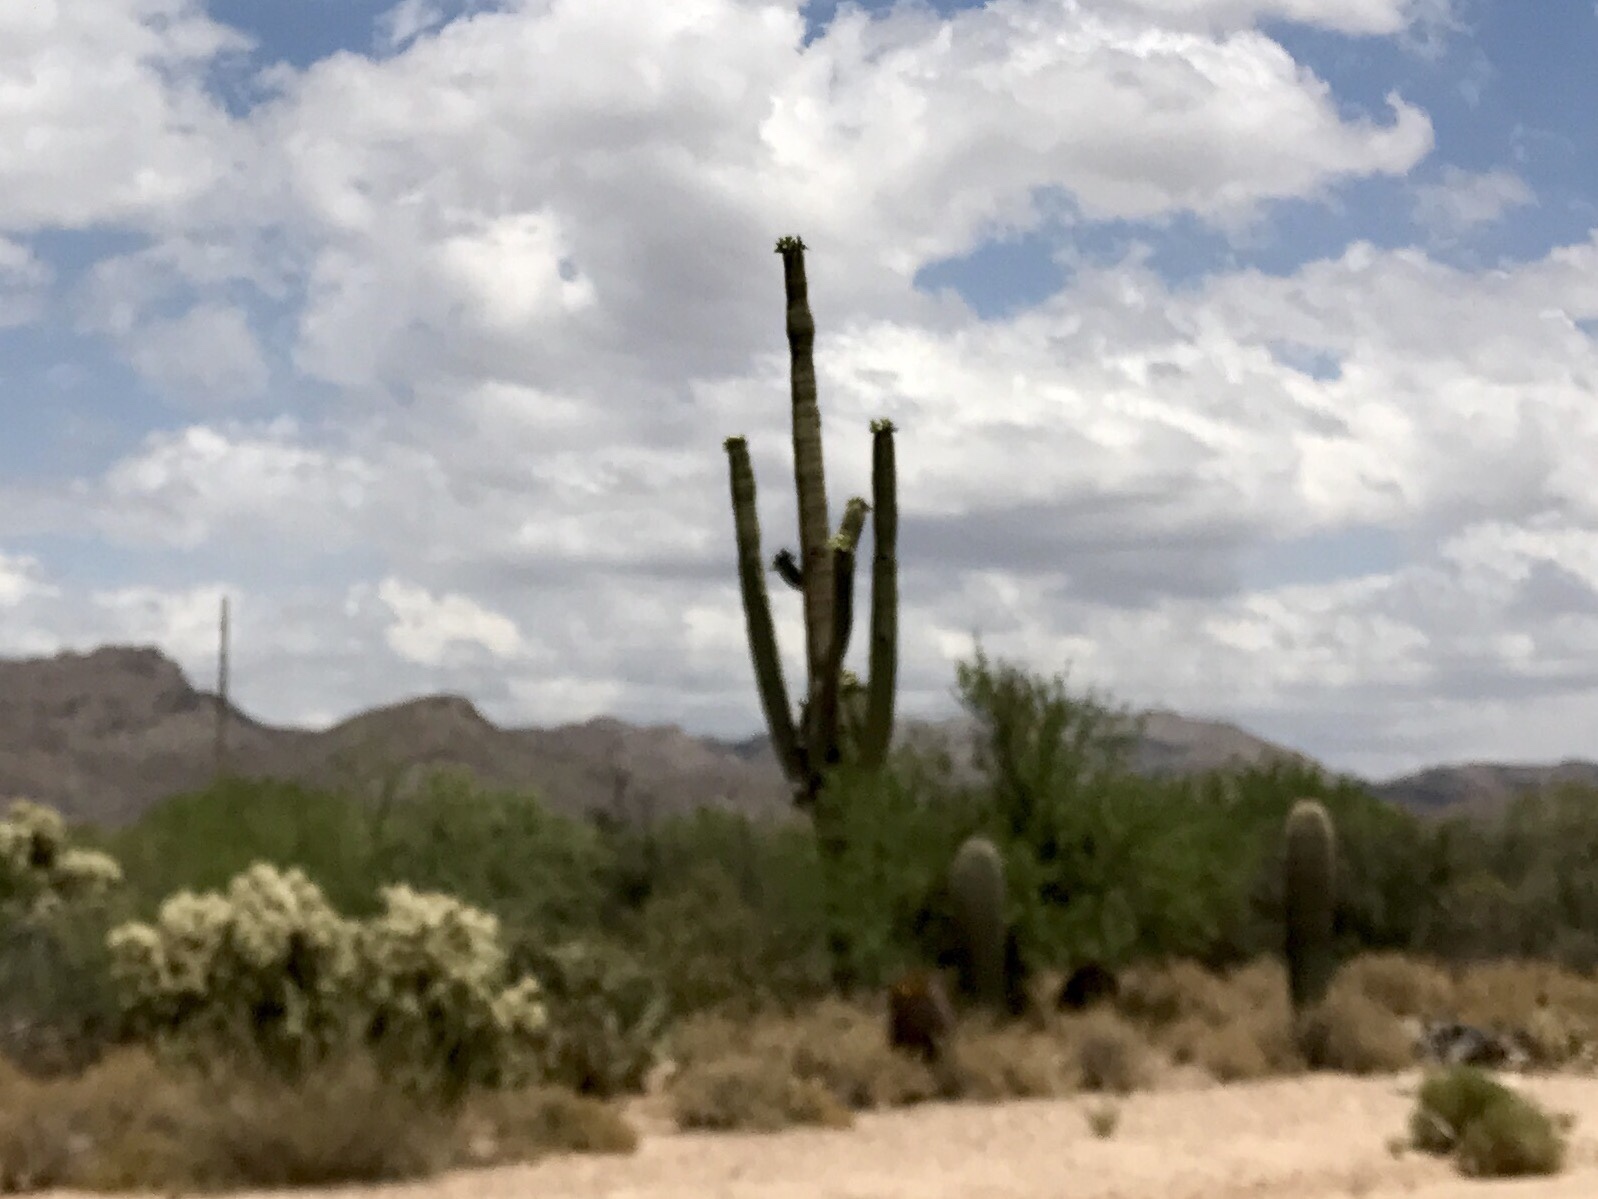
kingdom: Plantae
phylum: Tracheophyta
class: Magnoliopsida
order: Caryophyllales
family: Cactaceae
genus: Carnegiea
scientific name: Carnegiea gigantea
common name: Saguaro
